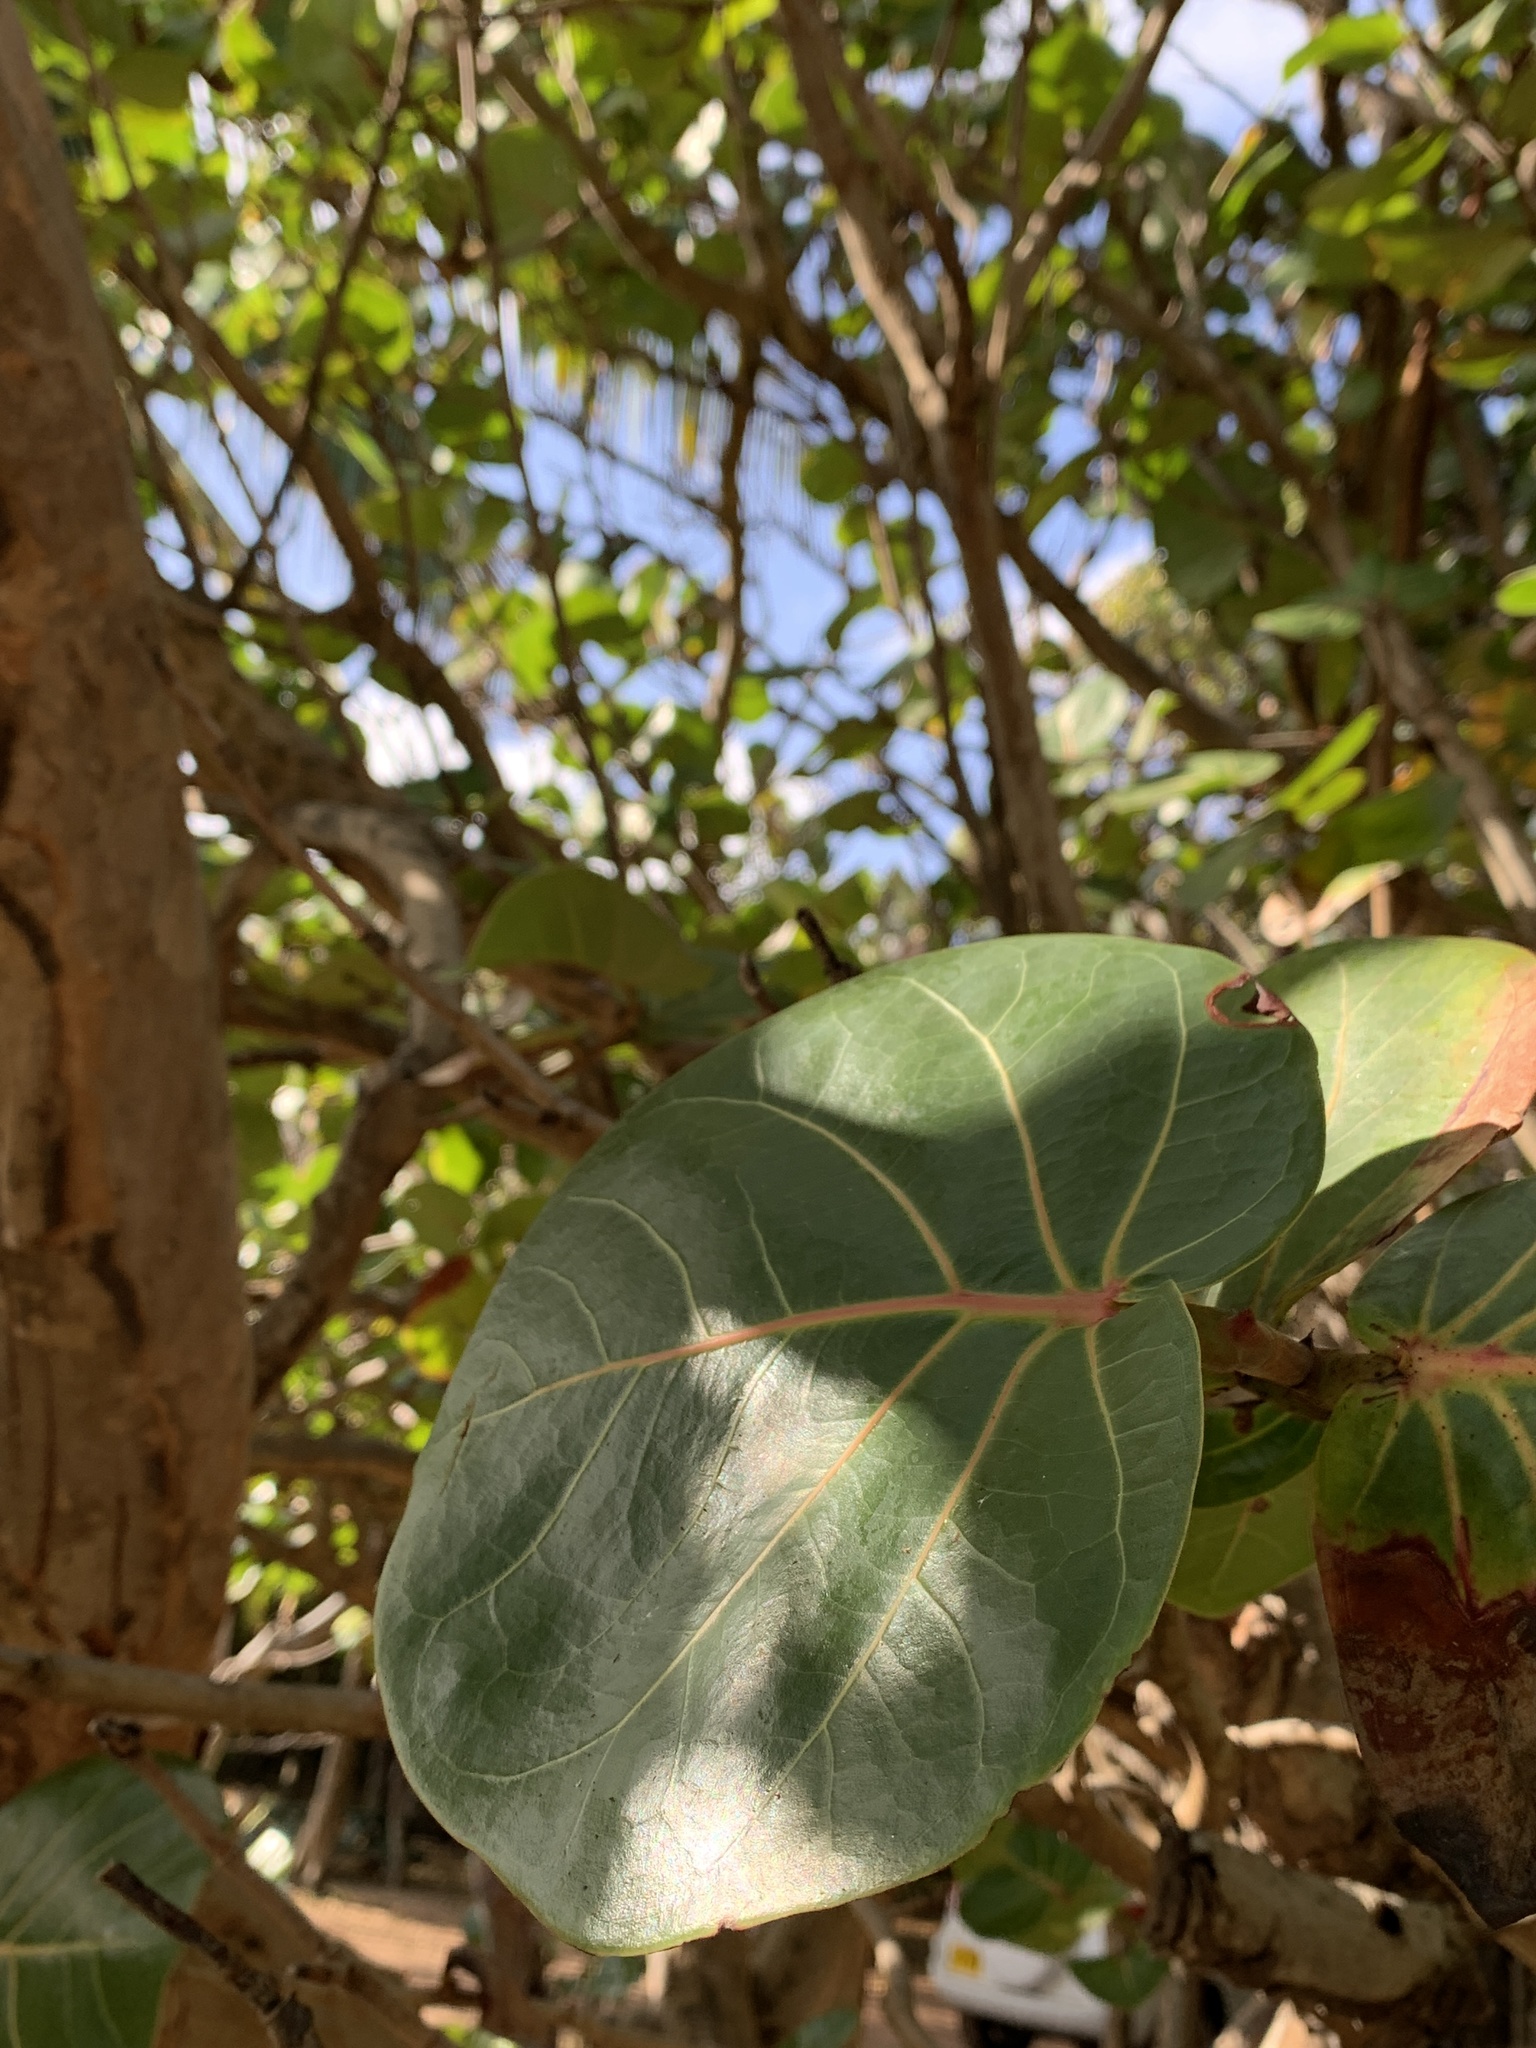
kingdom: Plantae
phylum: Tracheophyta
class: Magnoliopsida
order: Caryophyllales
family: Polygonaceae
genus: Coccoloba
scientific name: Coccoloba uvifera
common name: Seagrape
